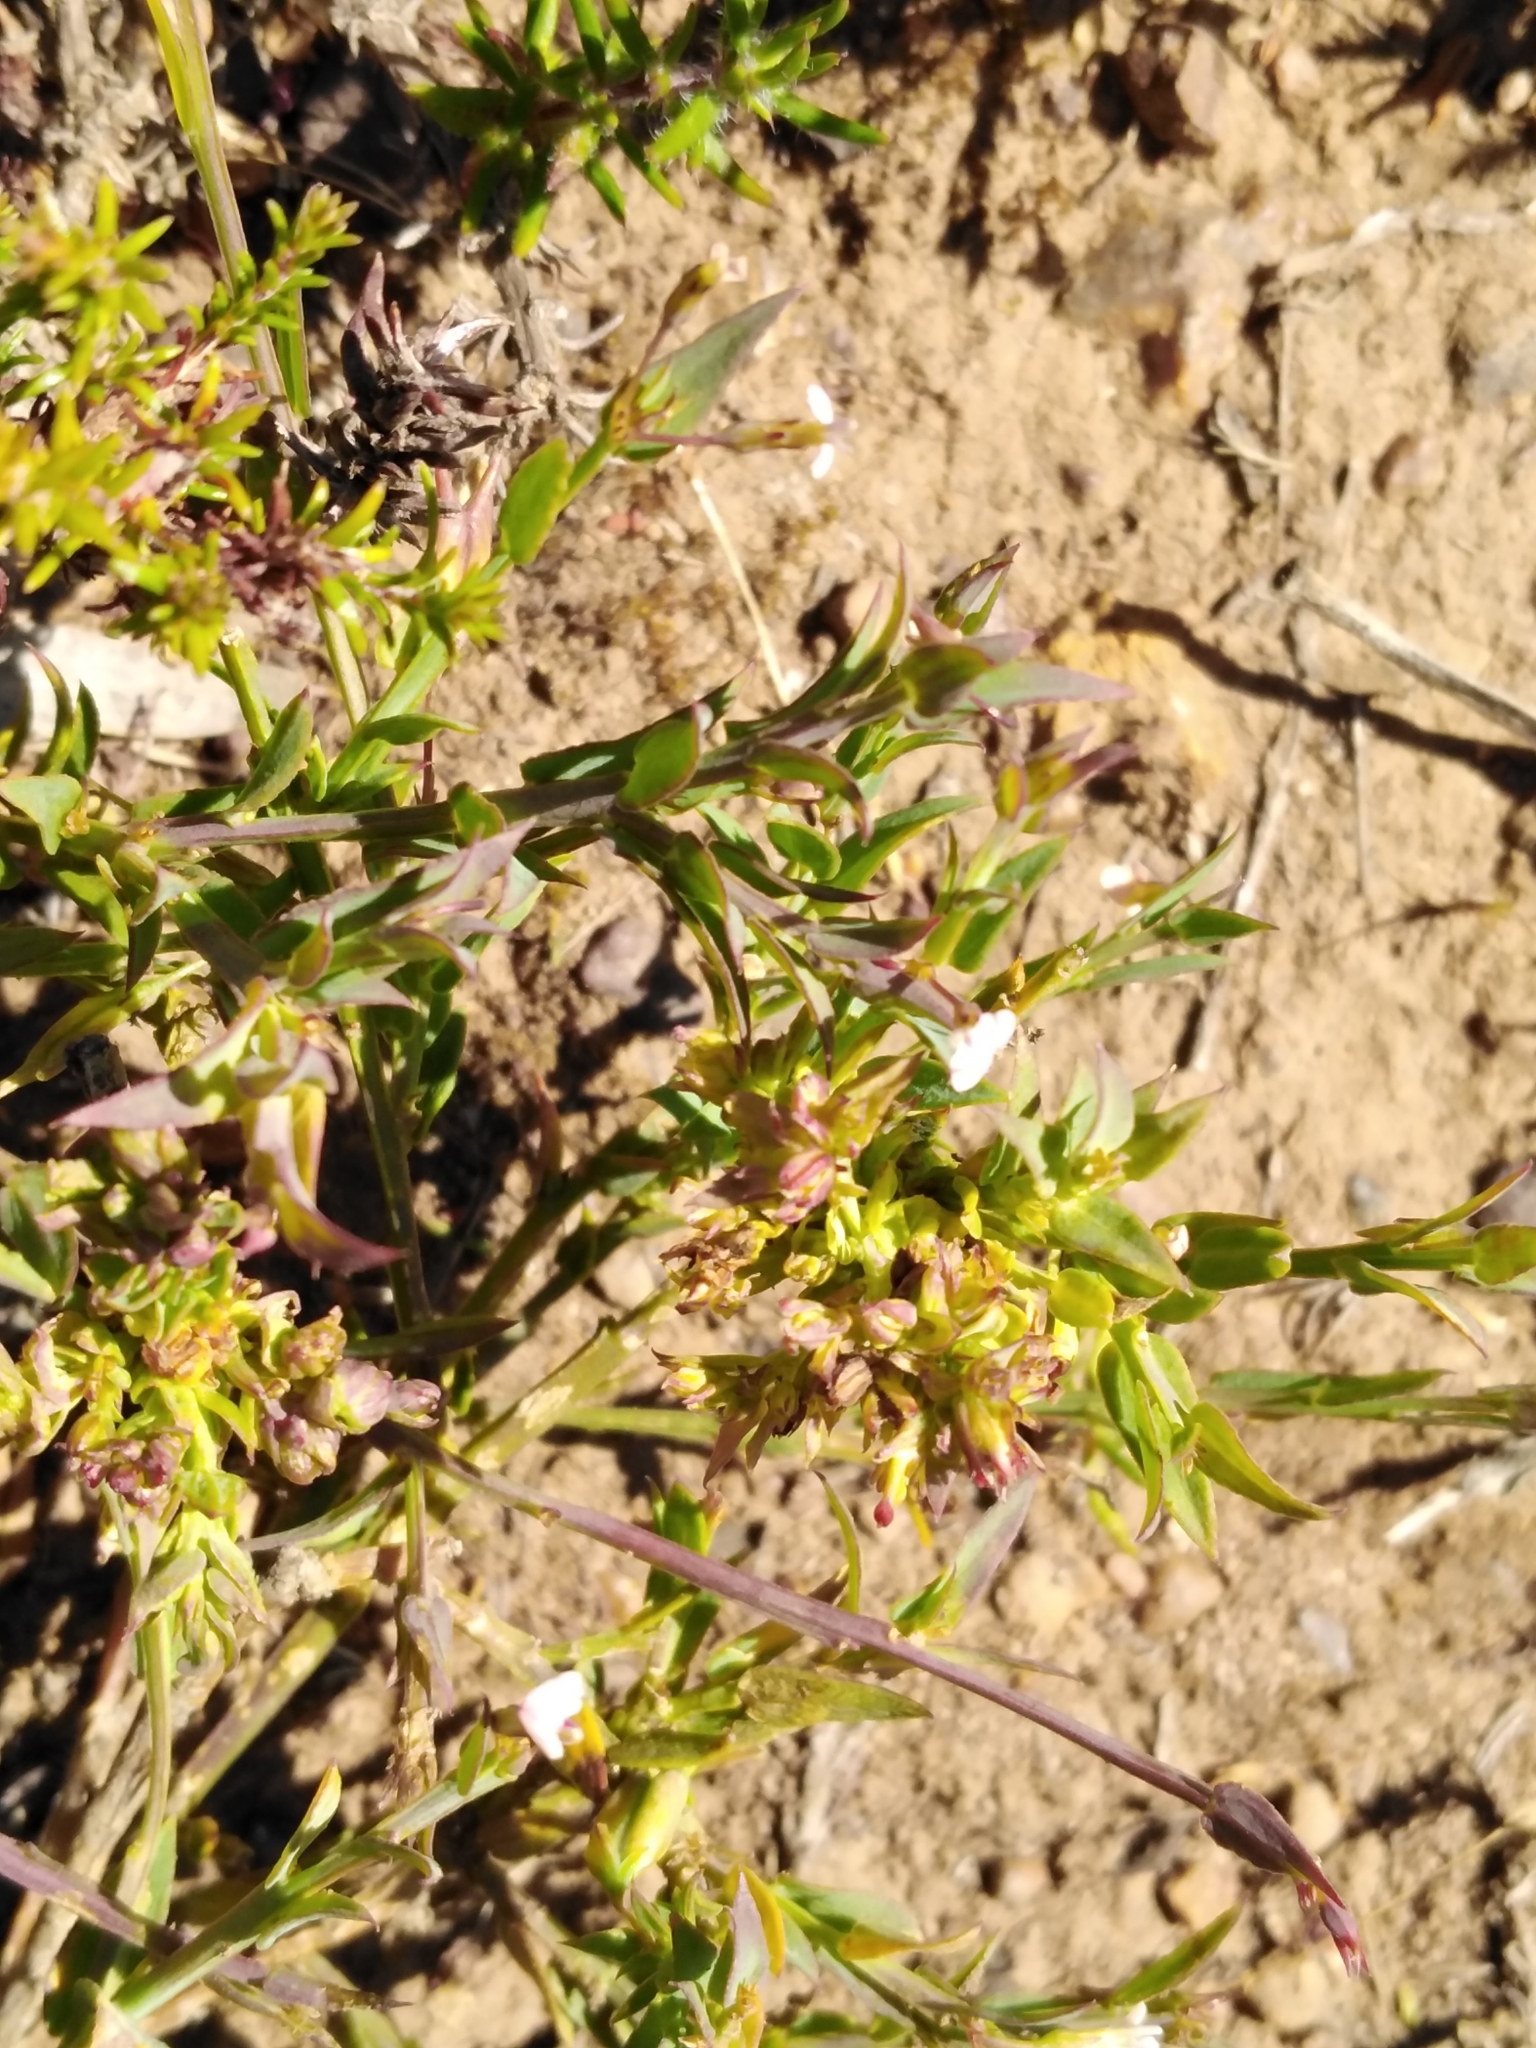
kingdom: Plantae
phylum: Tracheophyta
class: Magnoliopsida
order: Fabales
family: Polygalaceae
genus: Muraltia
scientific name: Muraltia trinervia
